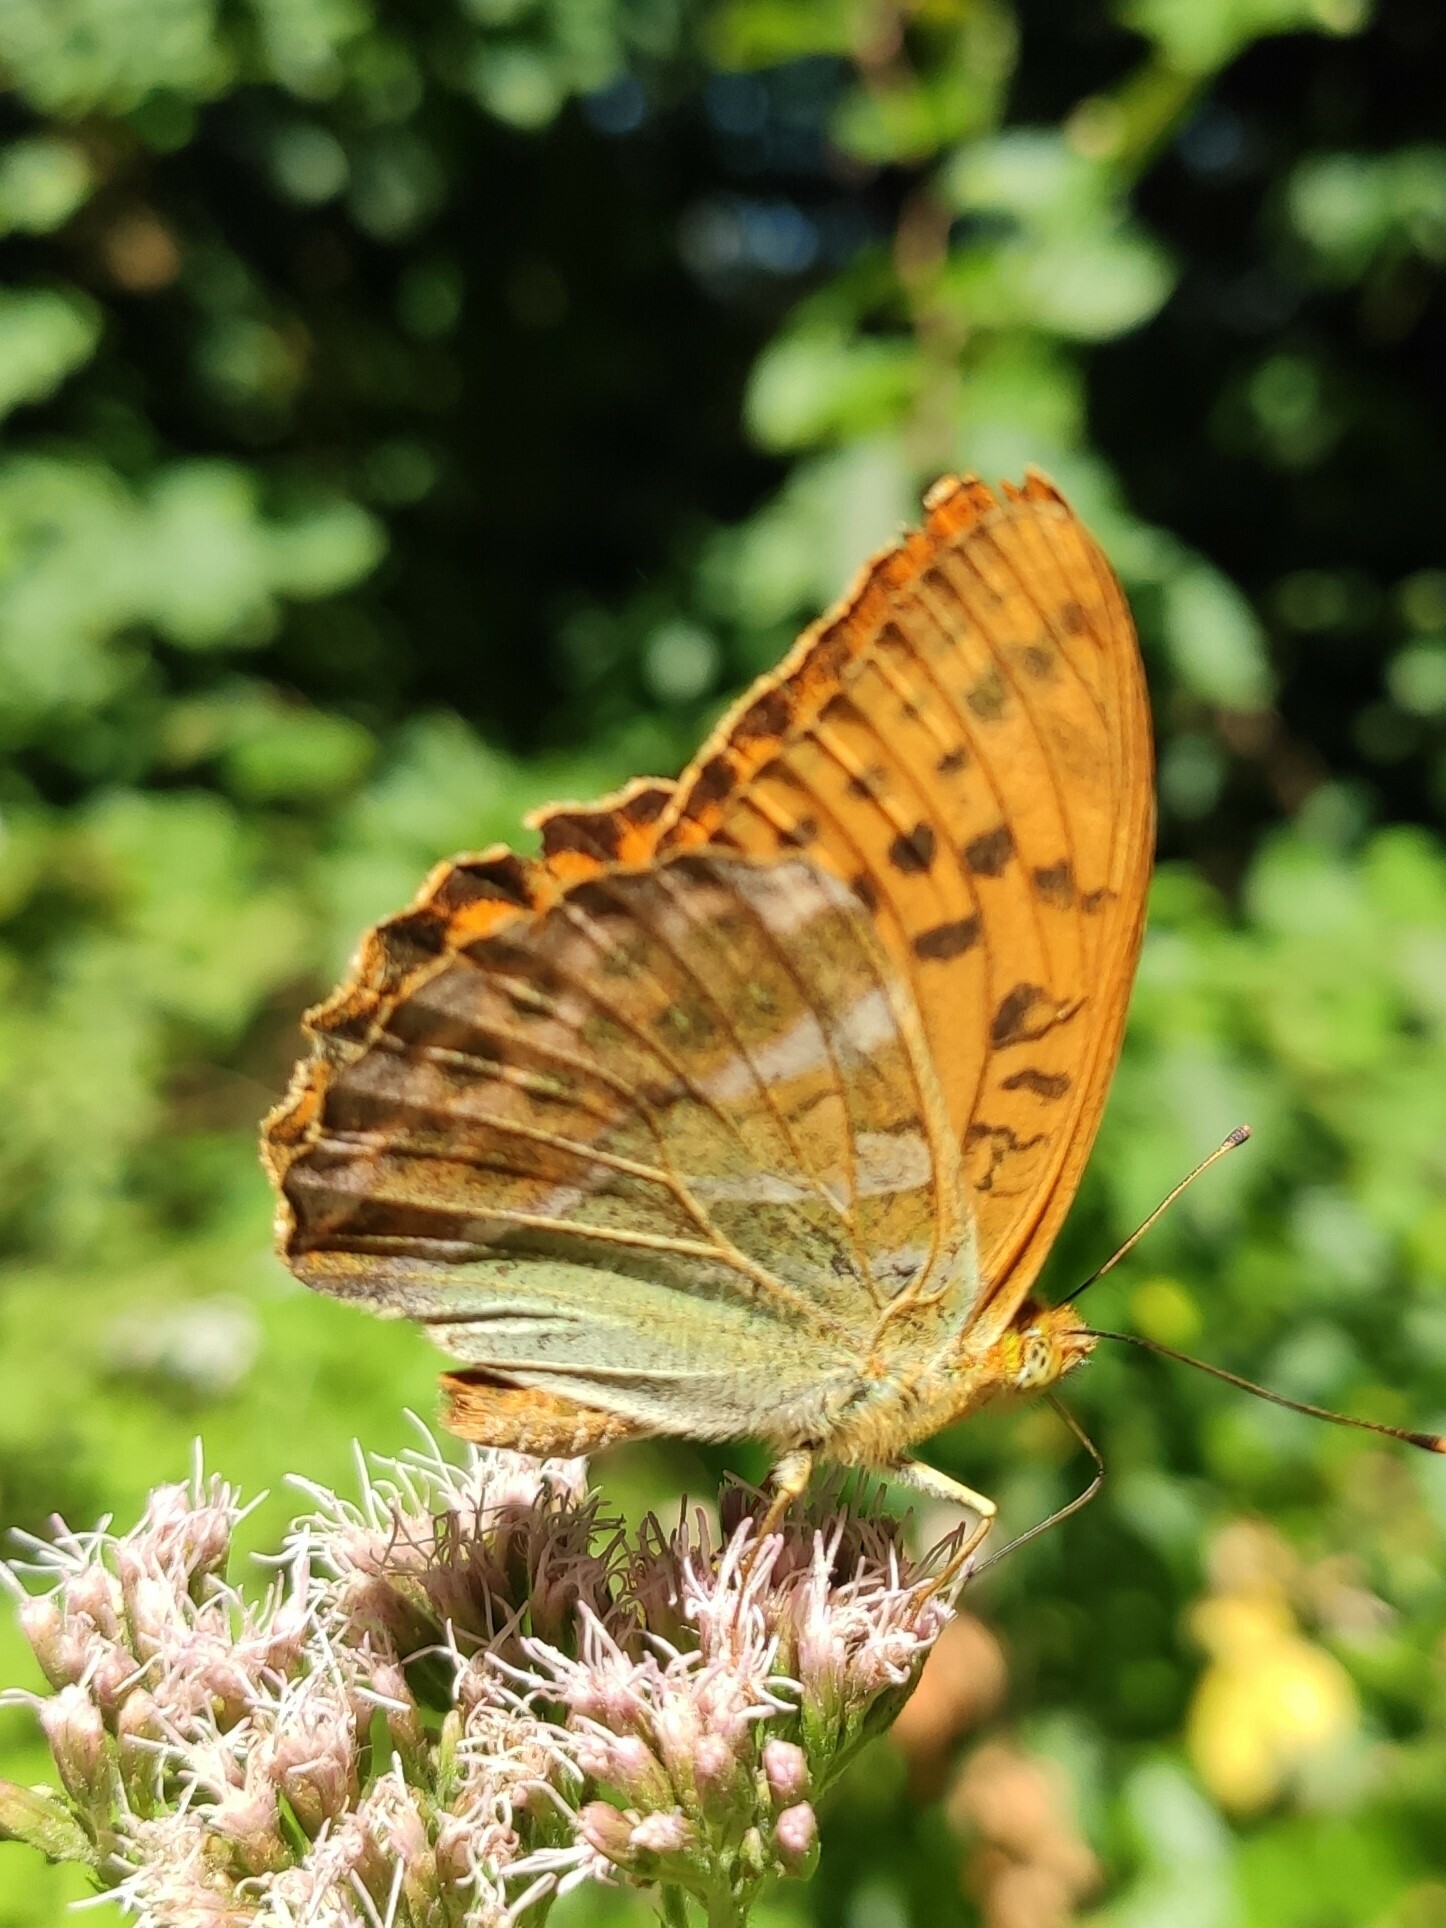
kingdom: Animalia
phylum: Arthropoda
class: Insecta
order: Lepidoptera
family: Nymphalidae
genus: Argynnis
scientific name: Argynnis paphia
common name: Silver-washed fritillary
